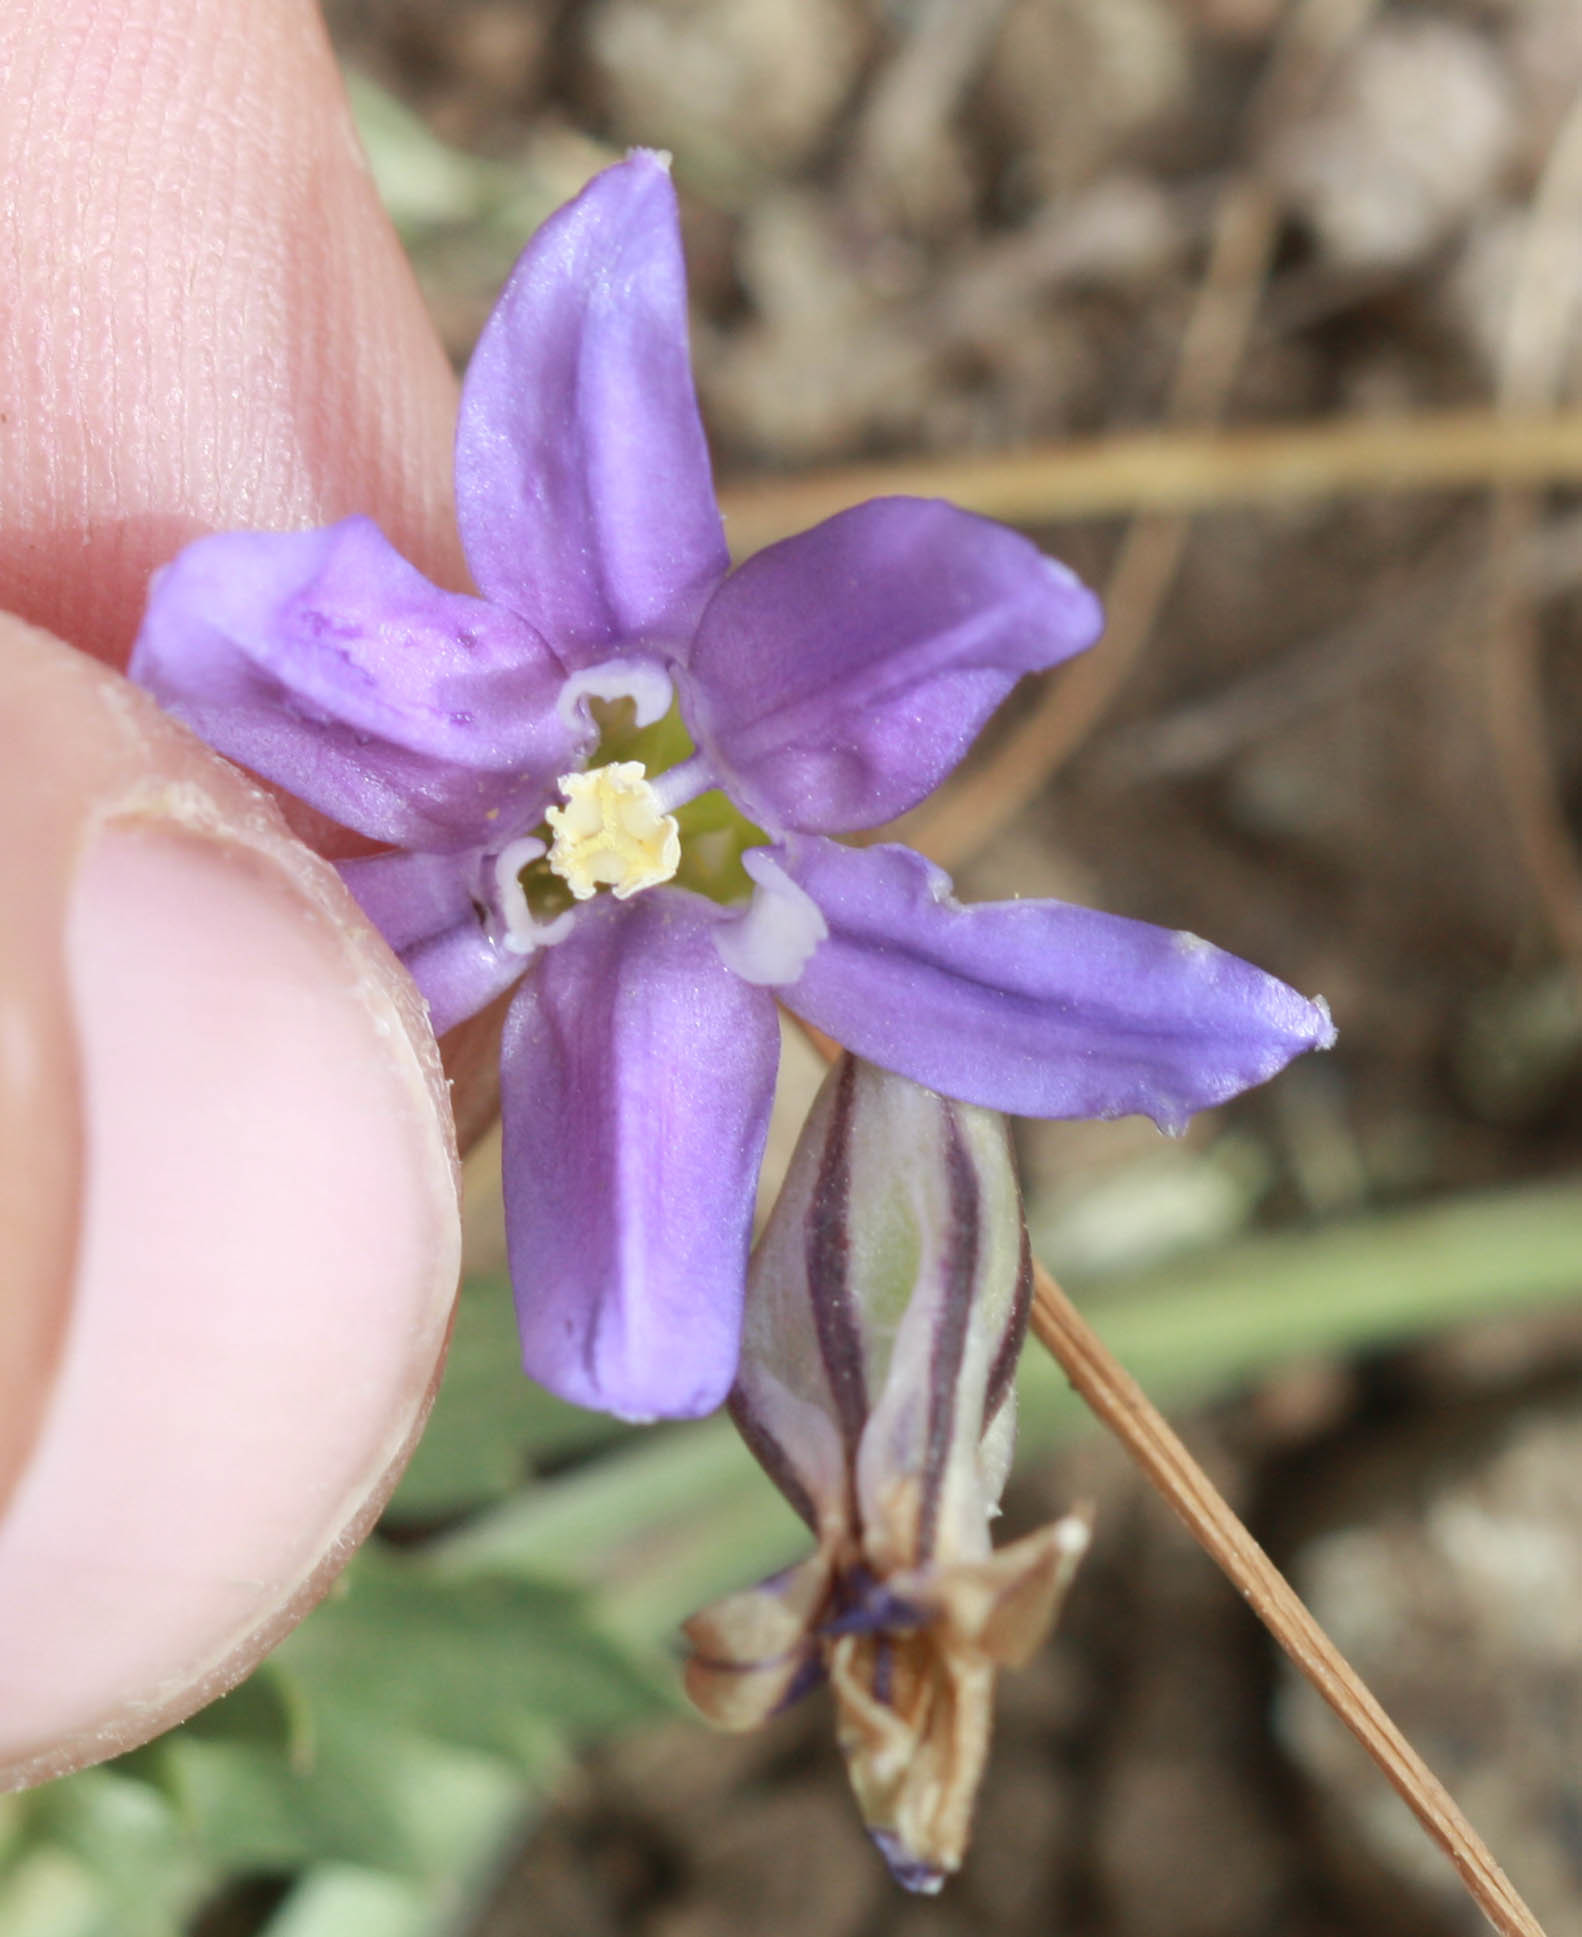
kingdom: Plantae
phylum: Tracheophyta
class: Liliopsida
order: Asparagales
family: Asparagaceae
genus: Brodiaea
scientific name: Brodiaea terrestris
